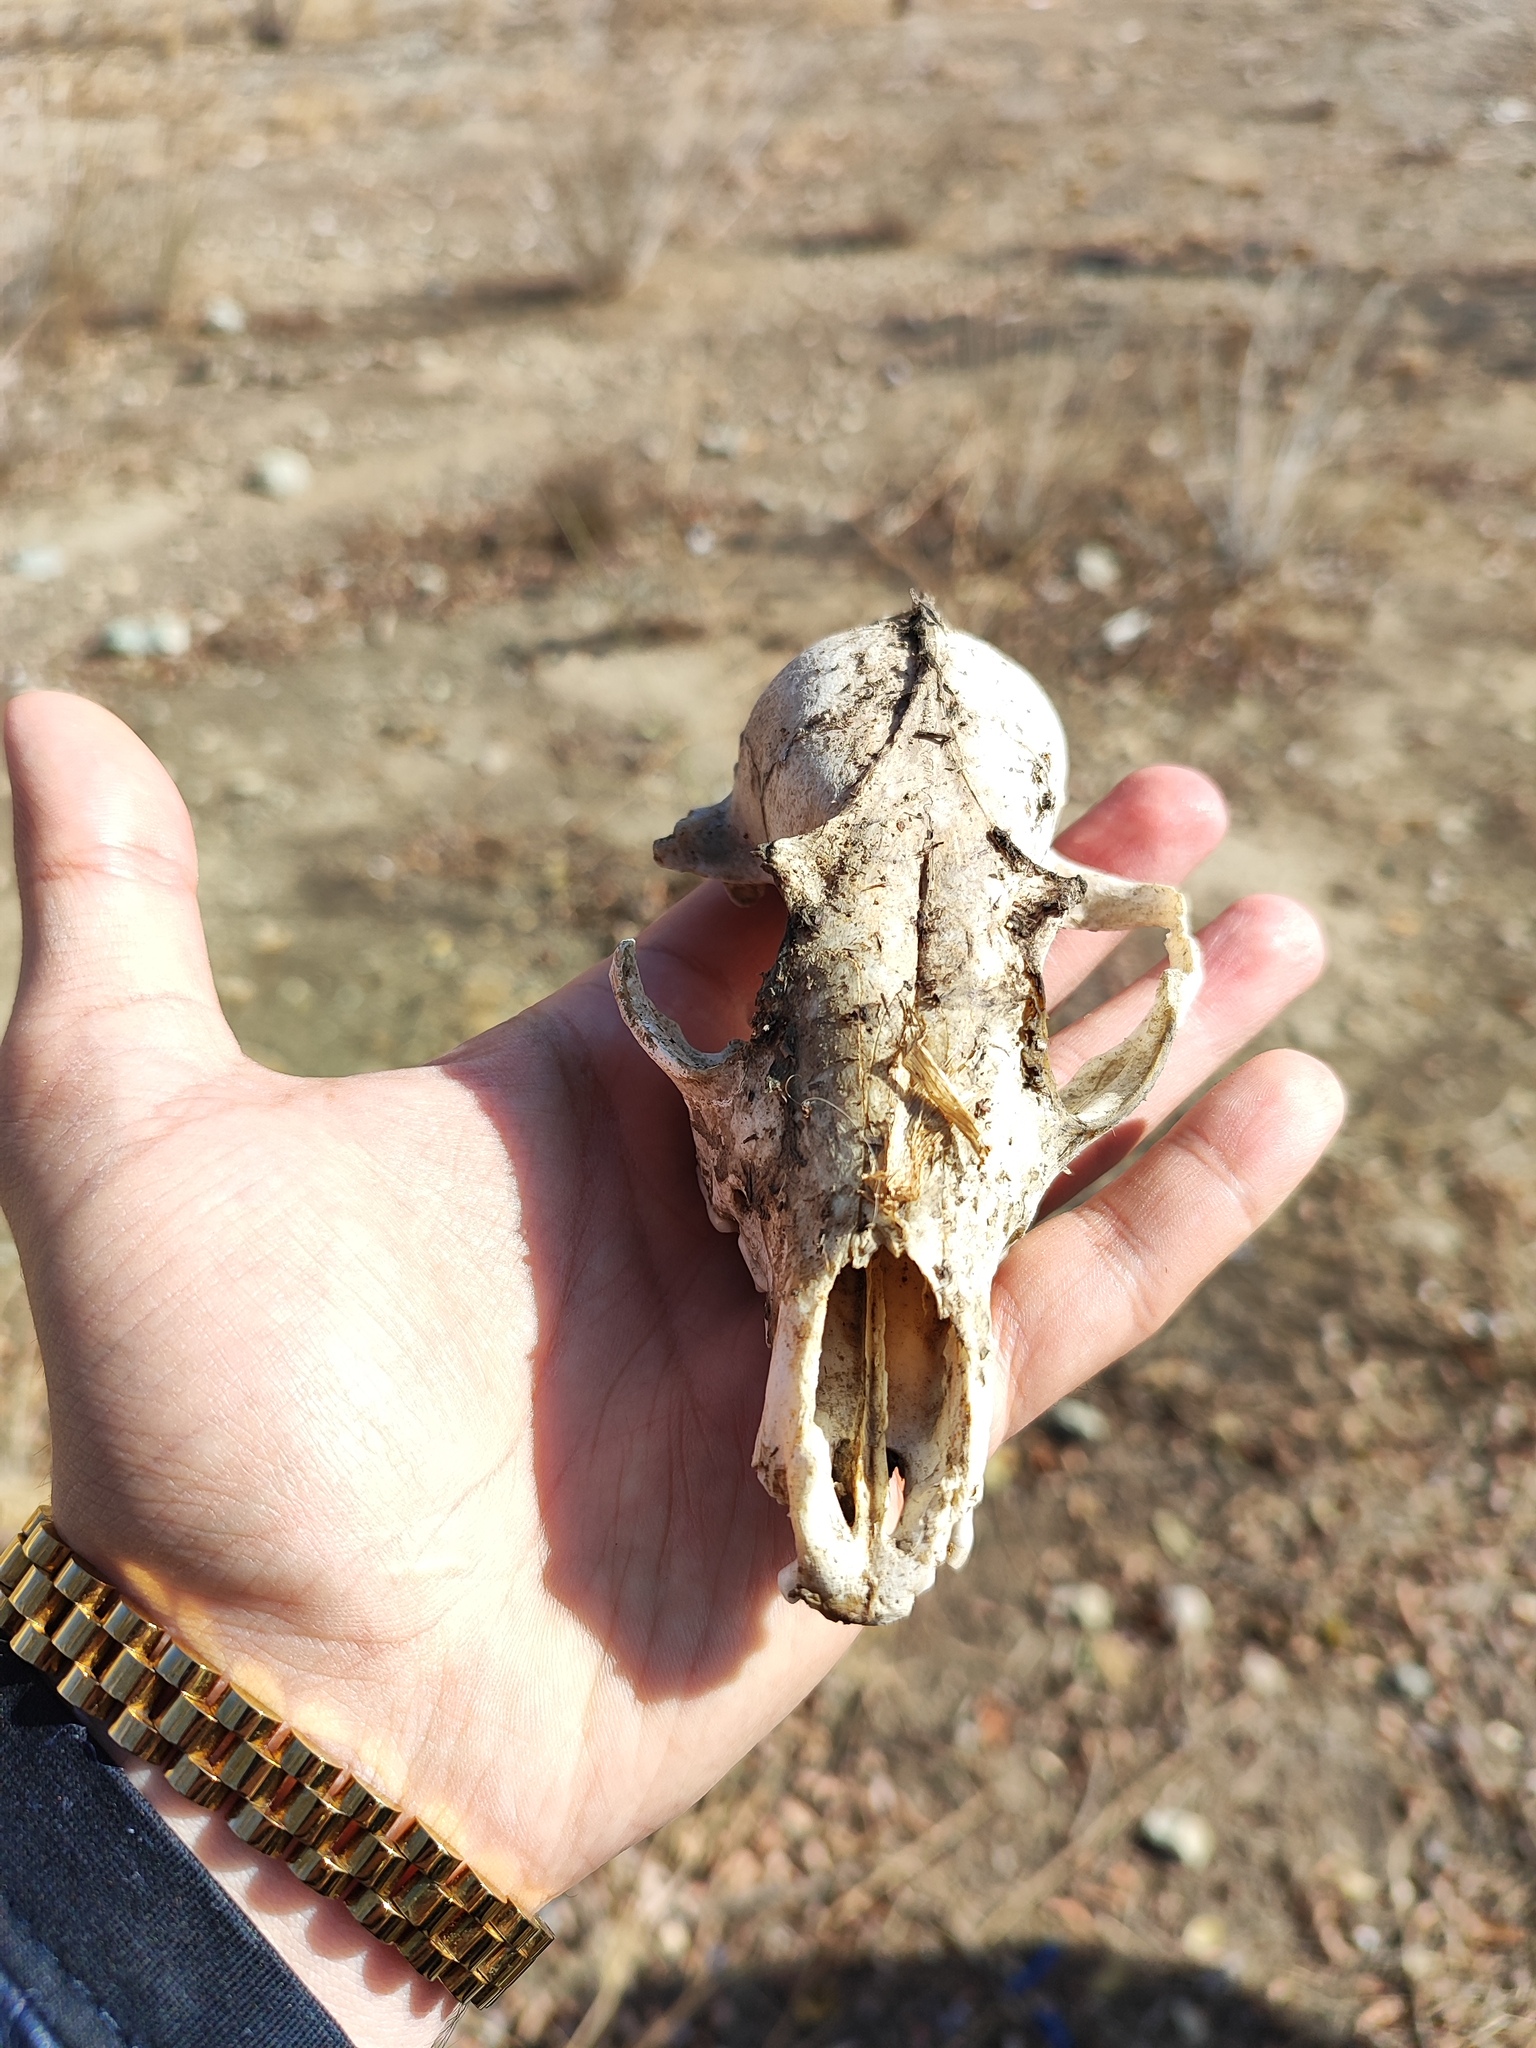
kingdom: Animalia
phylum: Chordata
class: Mammalia
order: Carnivora
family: Canidae
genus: Vulpes
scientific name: Vulpes vulpes
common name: Red fox
